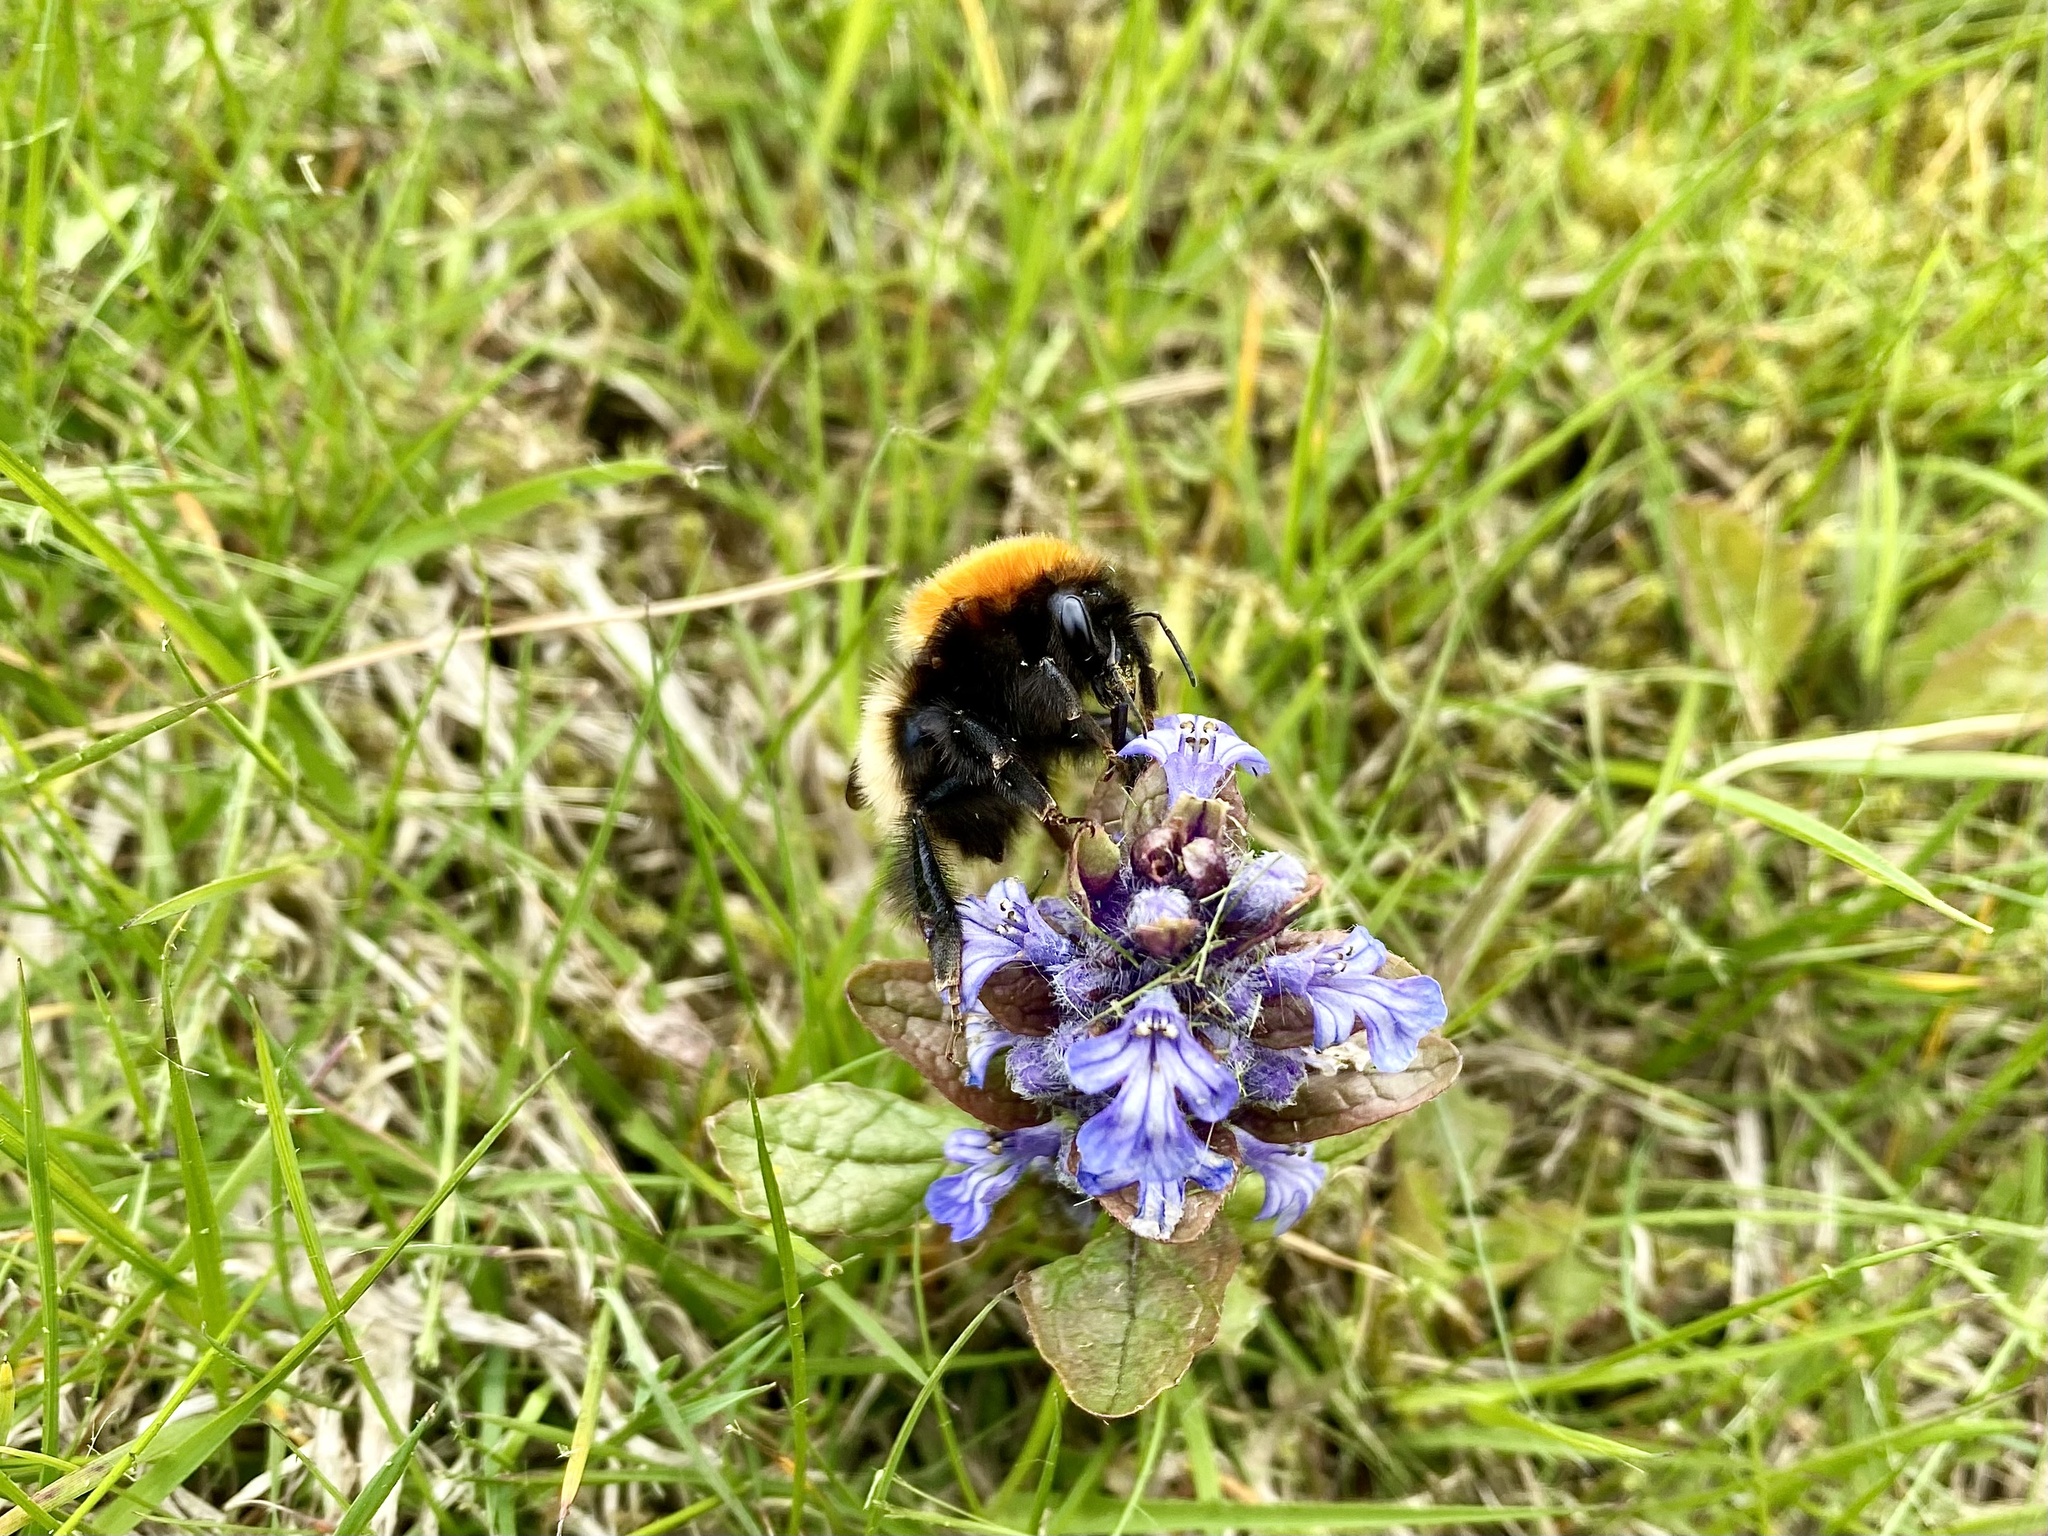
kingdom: Animalia
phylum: Arthropoda
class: Insecta
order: Hymenoptera
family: Apidae
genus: Bombus
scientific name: Bombus muscorum
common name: Moss carder-bee
